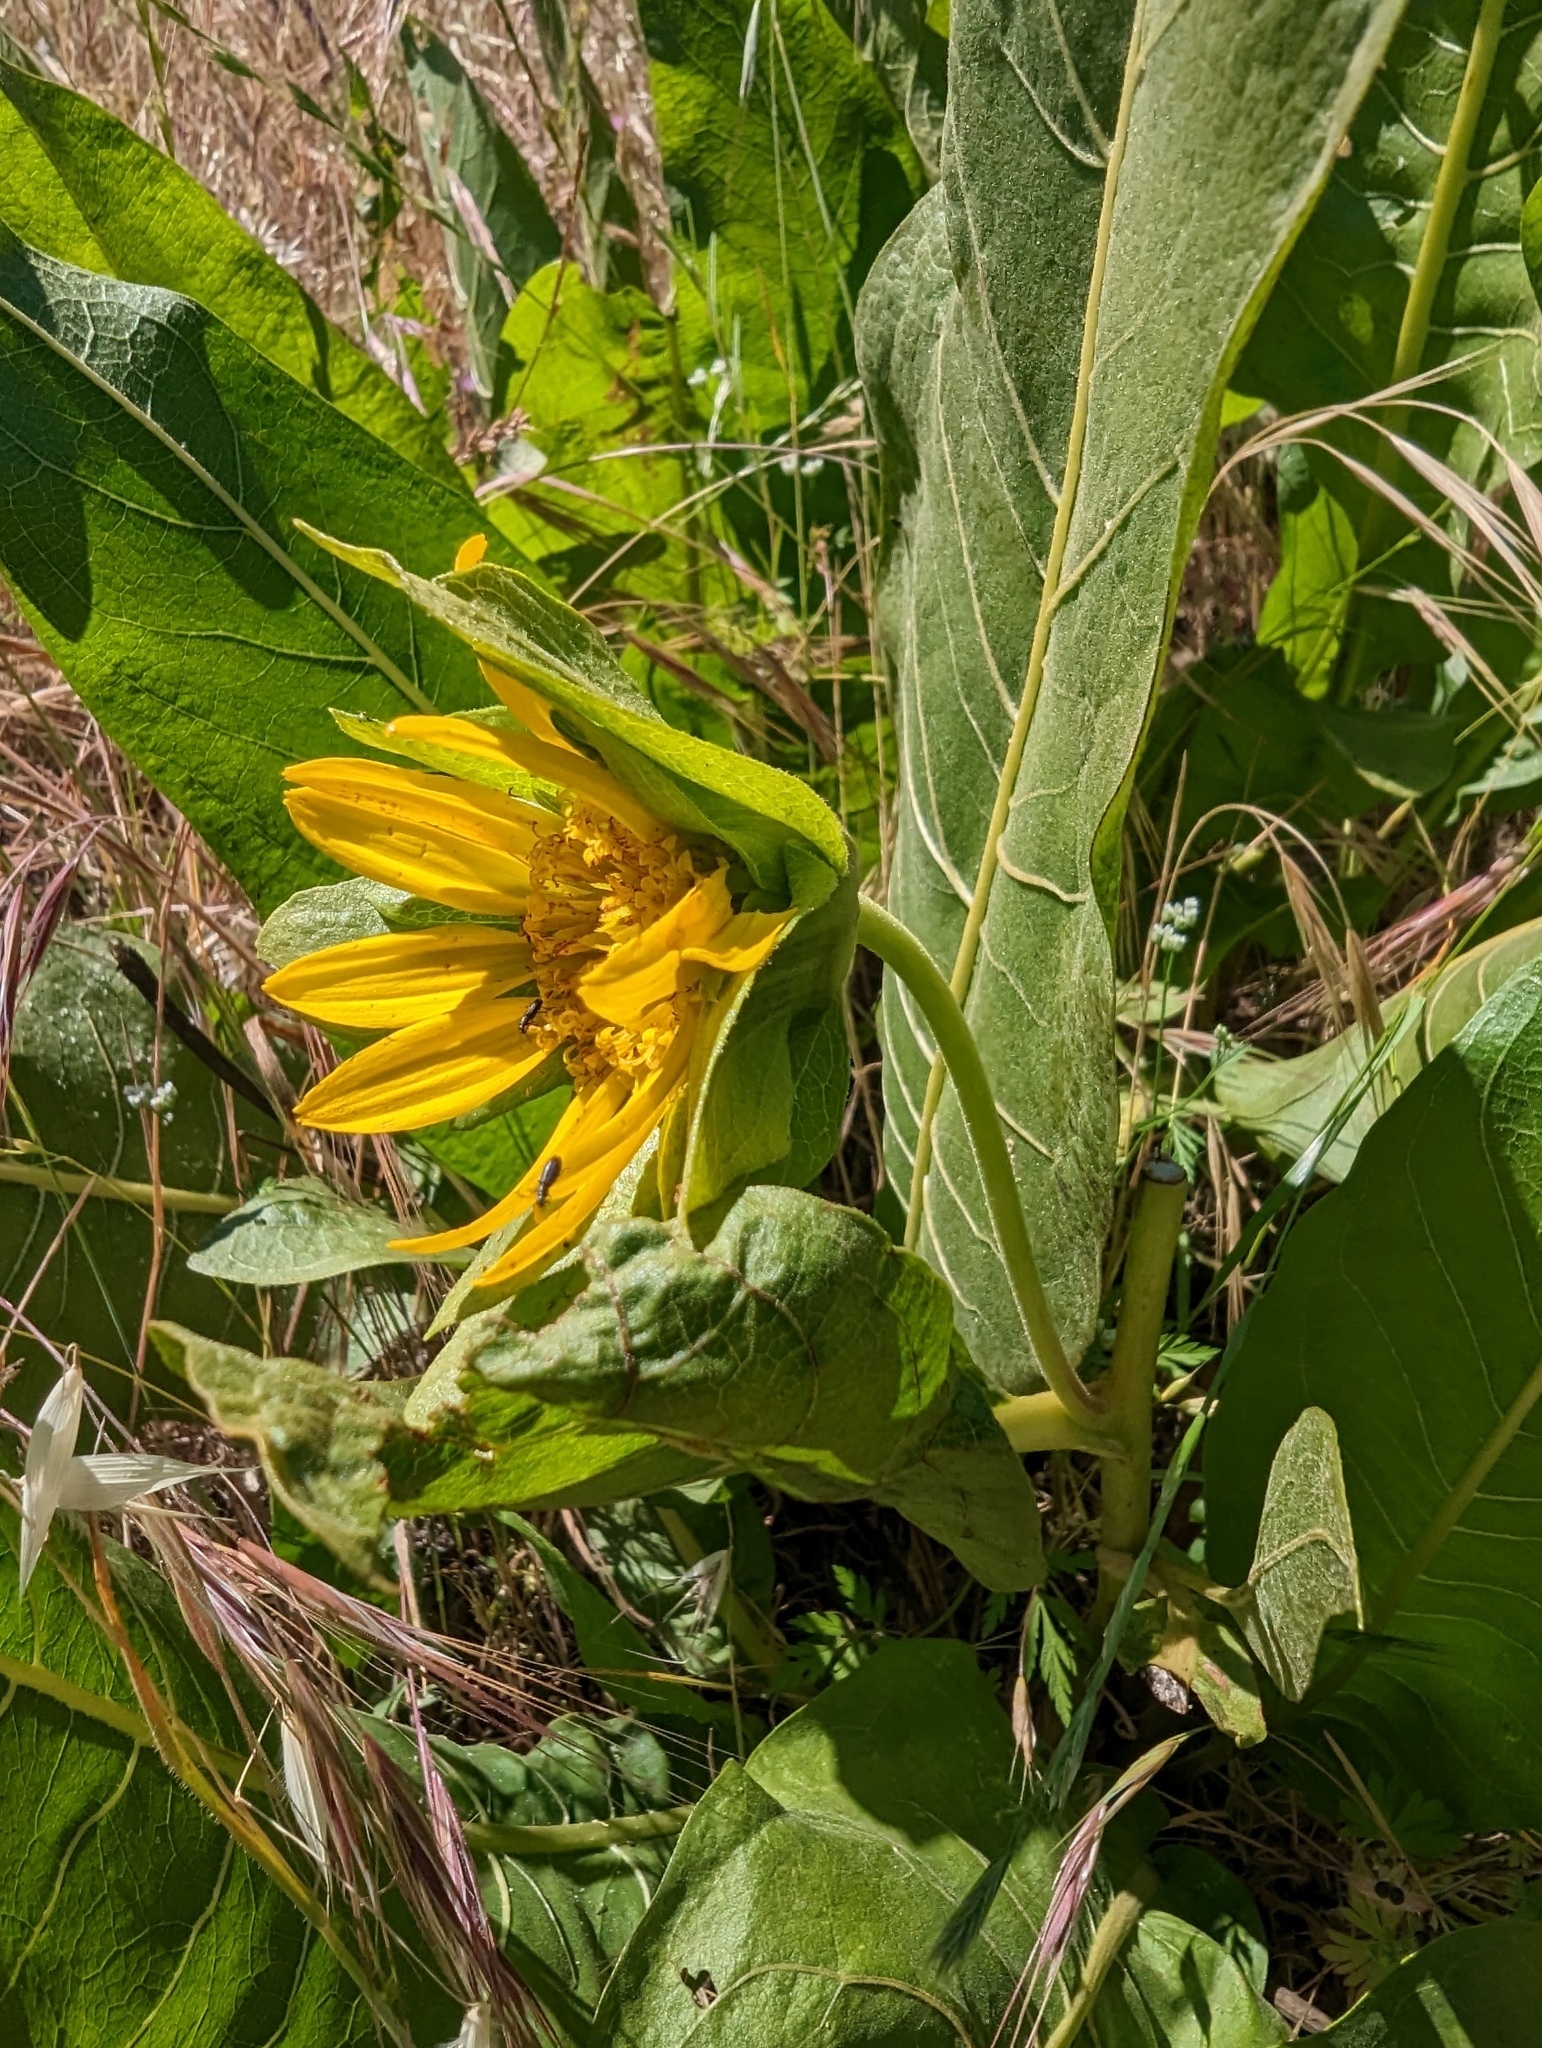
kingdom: Plantae
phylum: Tracheophyta
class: Magnoliopsida
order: Asterales
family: Asteraceae
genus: Wyethia
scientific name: Wyethia glabra
